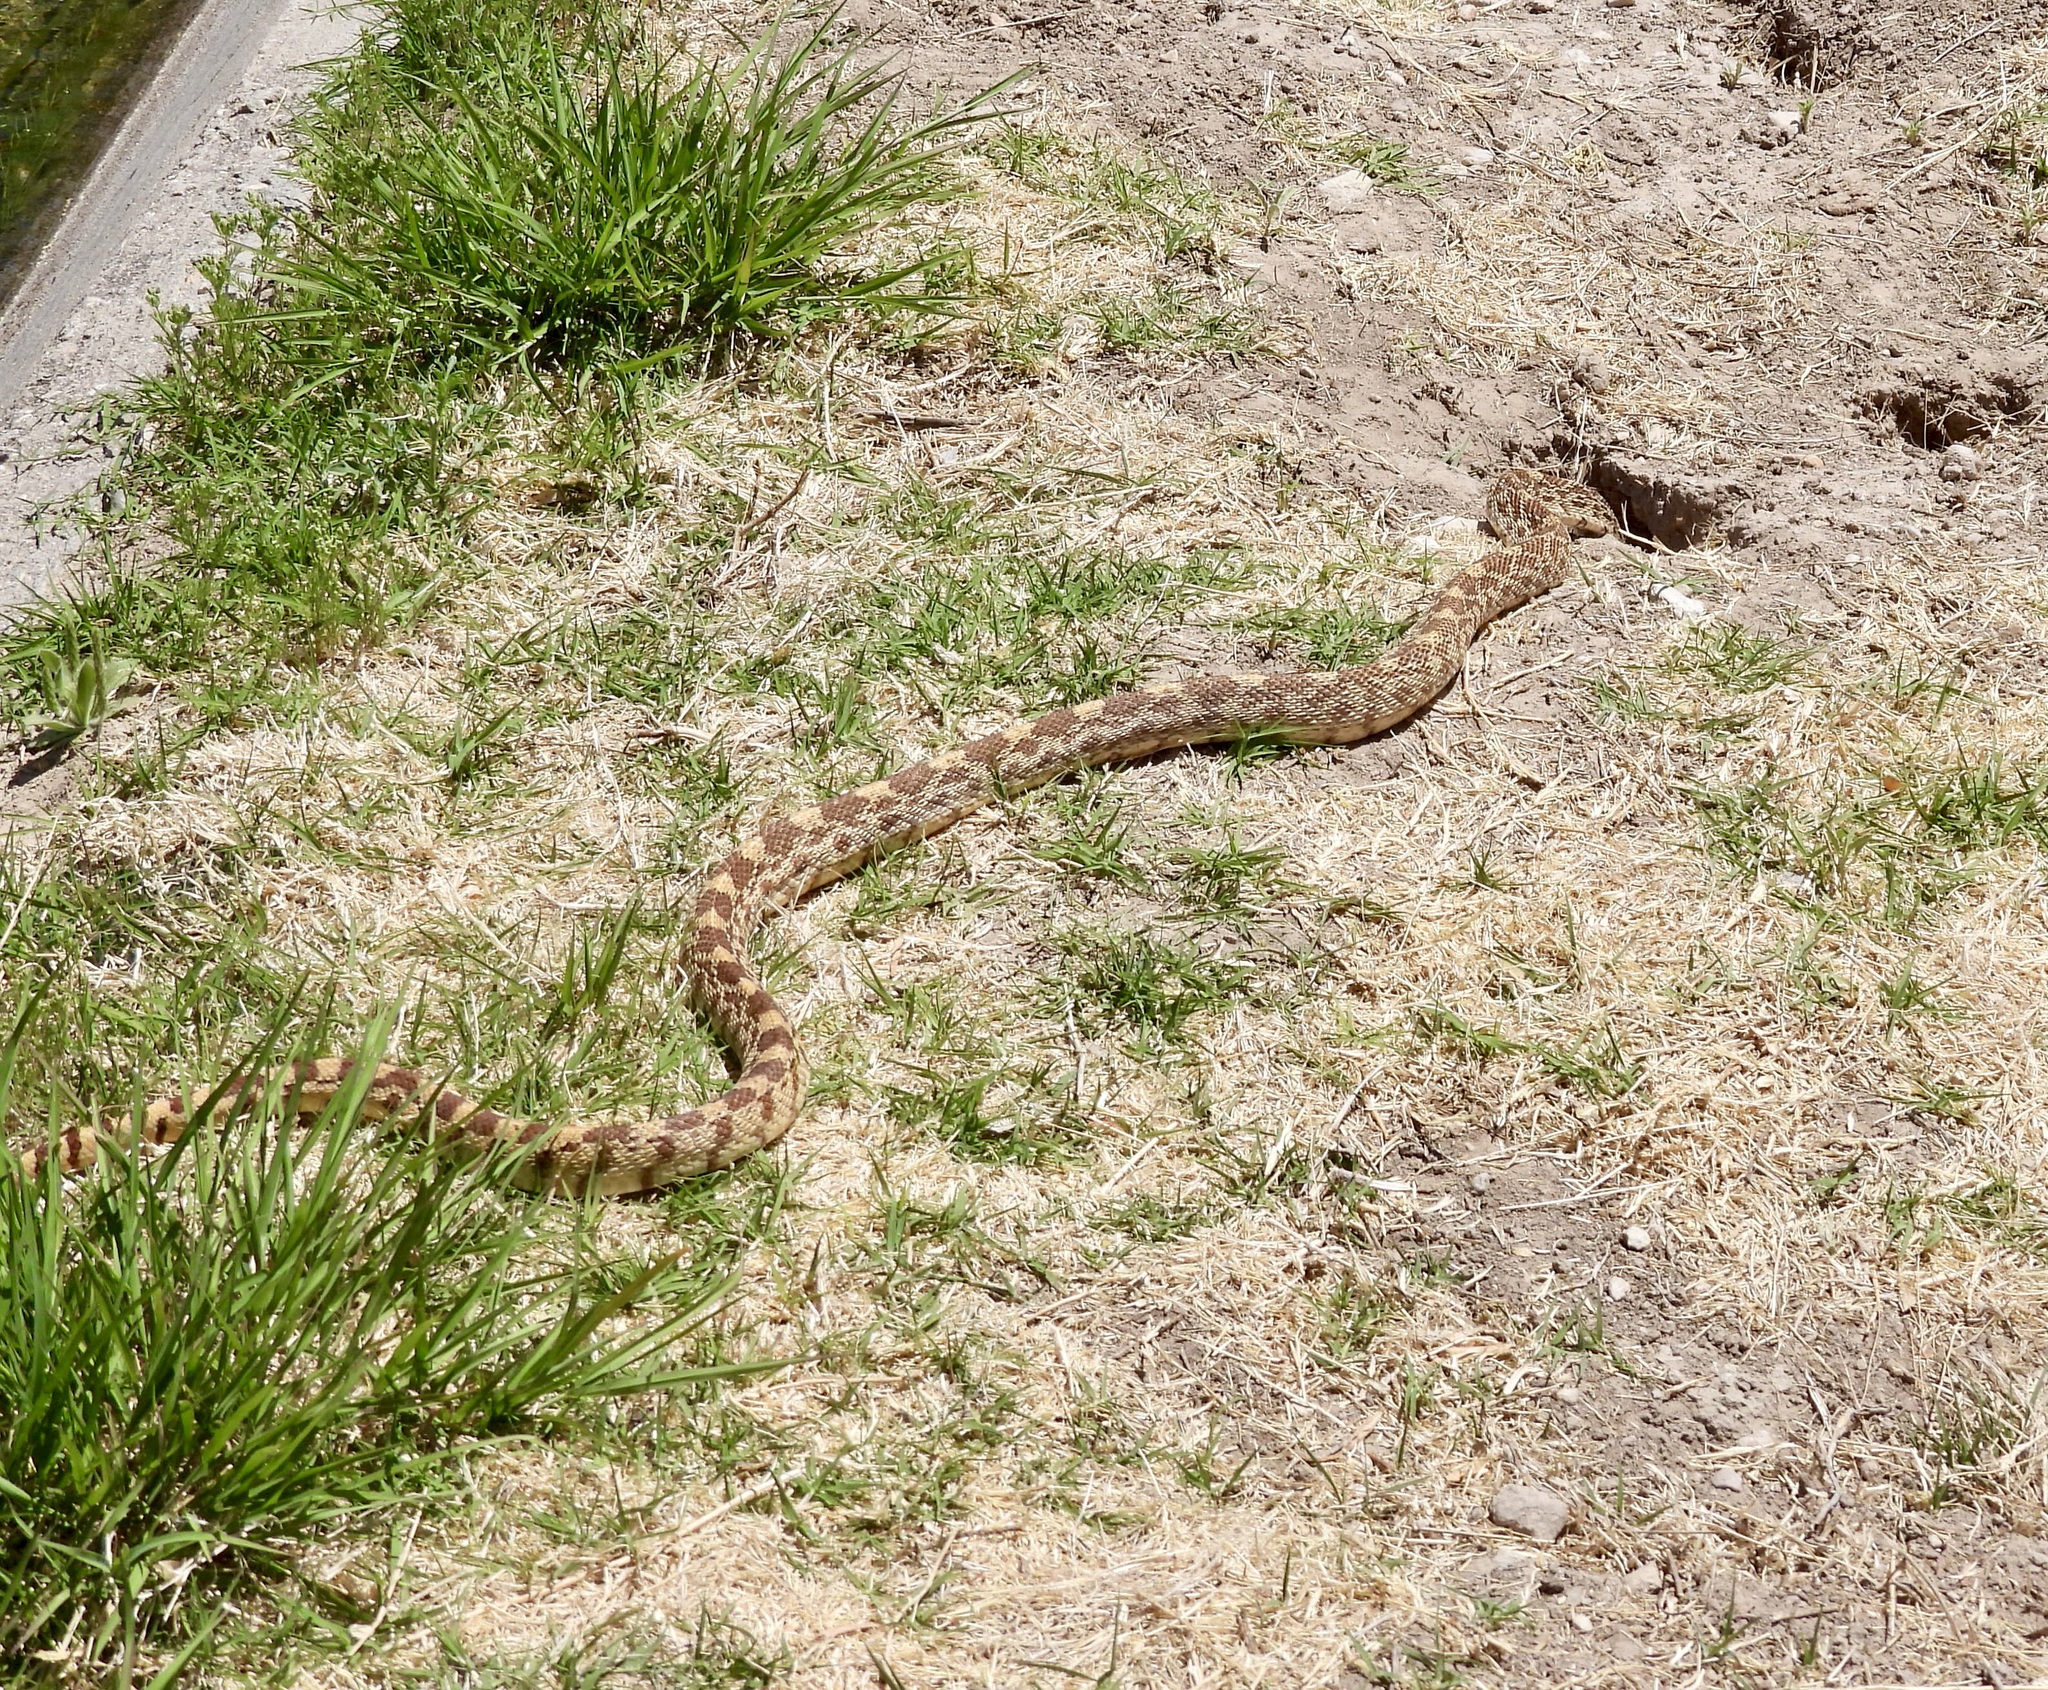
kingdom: Animalia
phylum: Chordata
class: Squamata
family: Colubridae
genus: Pituophis
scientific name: Pituophis catenifer
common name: Gopher snake
